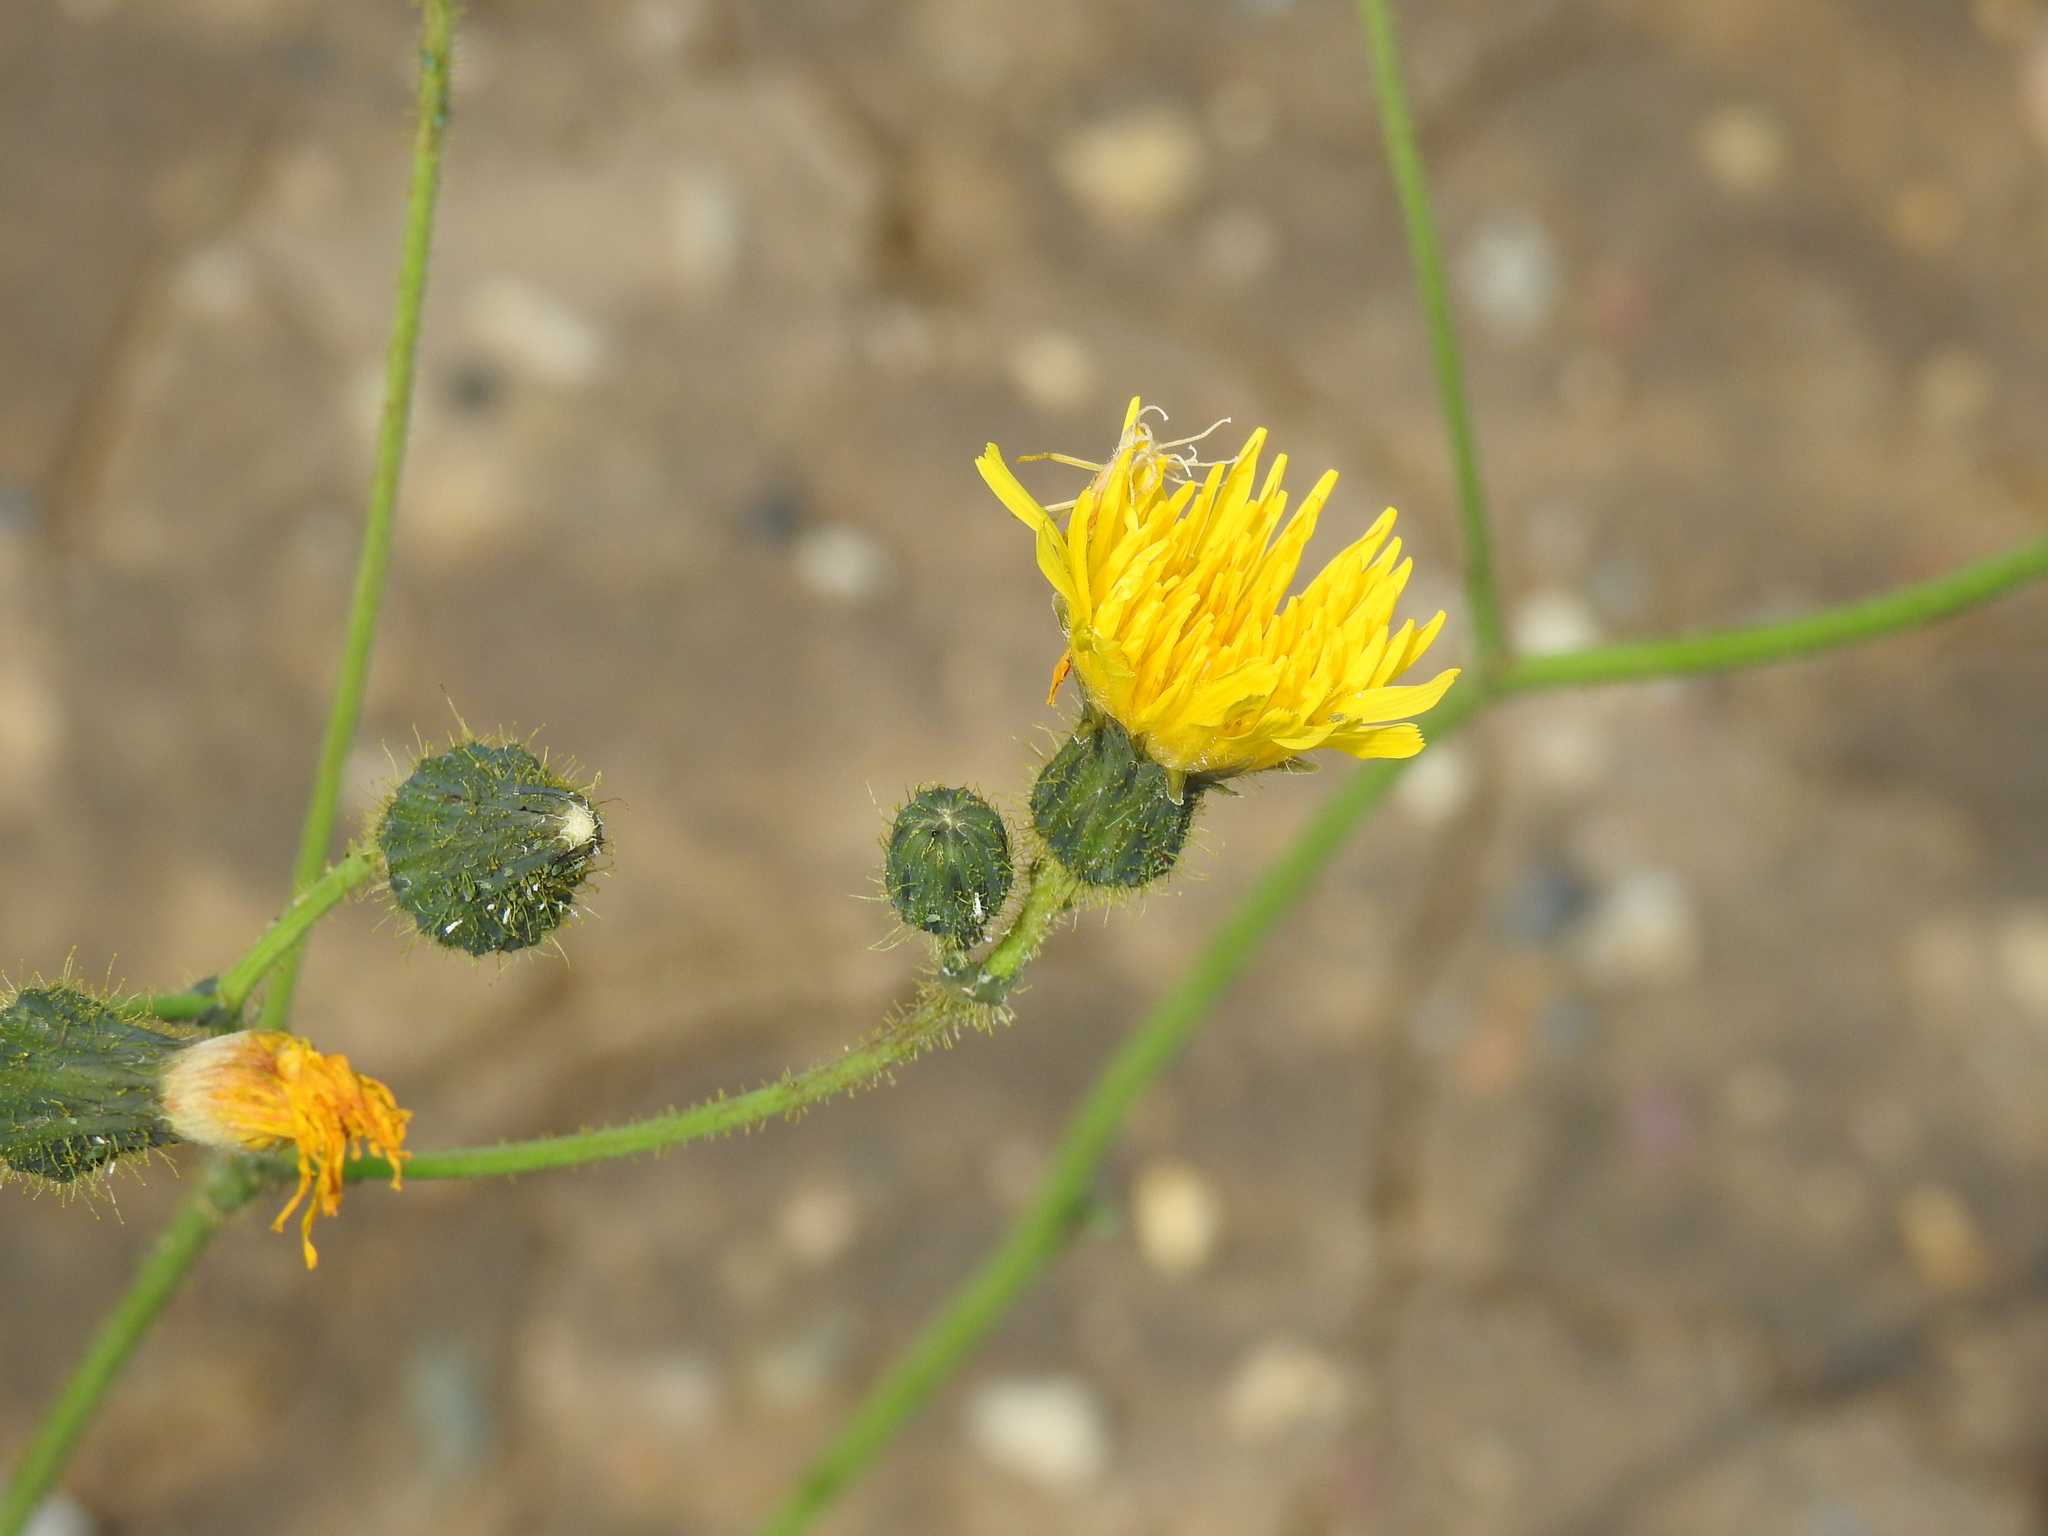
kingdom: Plantae
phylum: Tracheophyta
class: Magnoliopsida
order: Asterales
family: Asteraceae
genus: Sonchus
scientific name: Sonchus arvensis
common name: Perennial sow-thistle
